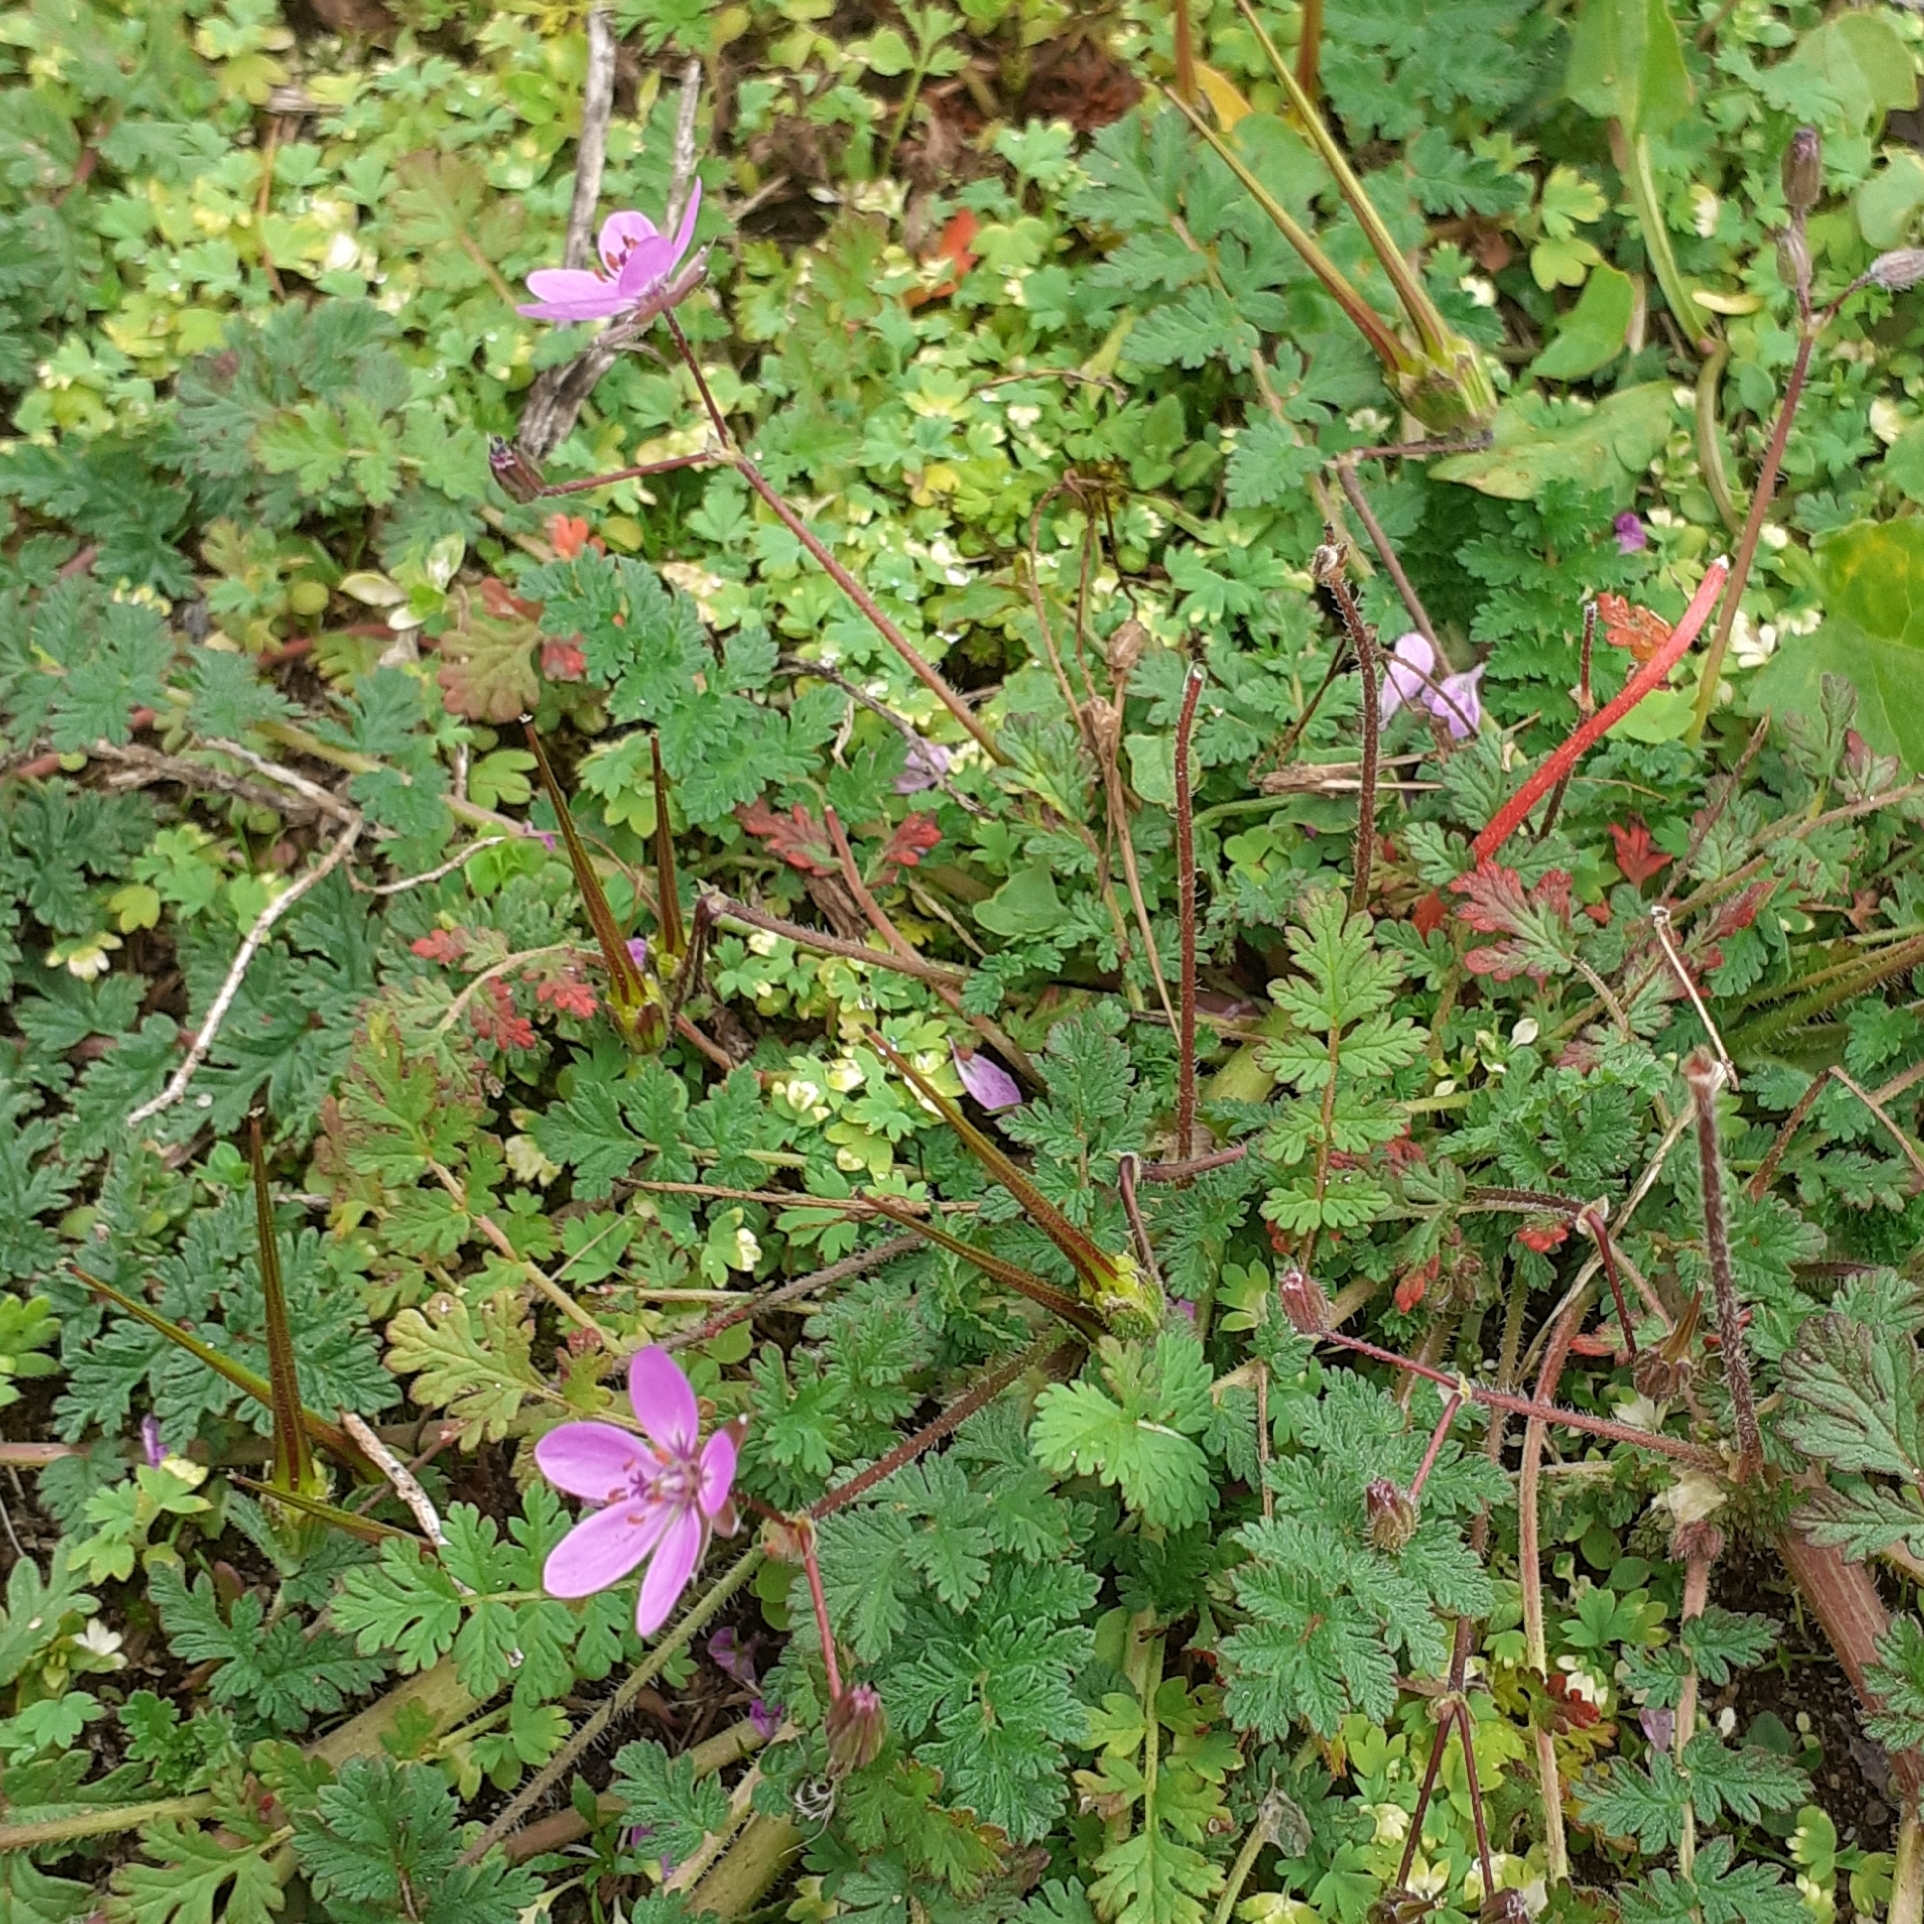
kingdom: Plantae
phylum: Tracheophyta
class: Magnoliopsida
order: Geraniales
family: Geraniaceae
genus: Erodium
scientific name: Erodium cicutarium
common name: Common stork's-bill
